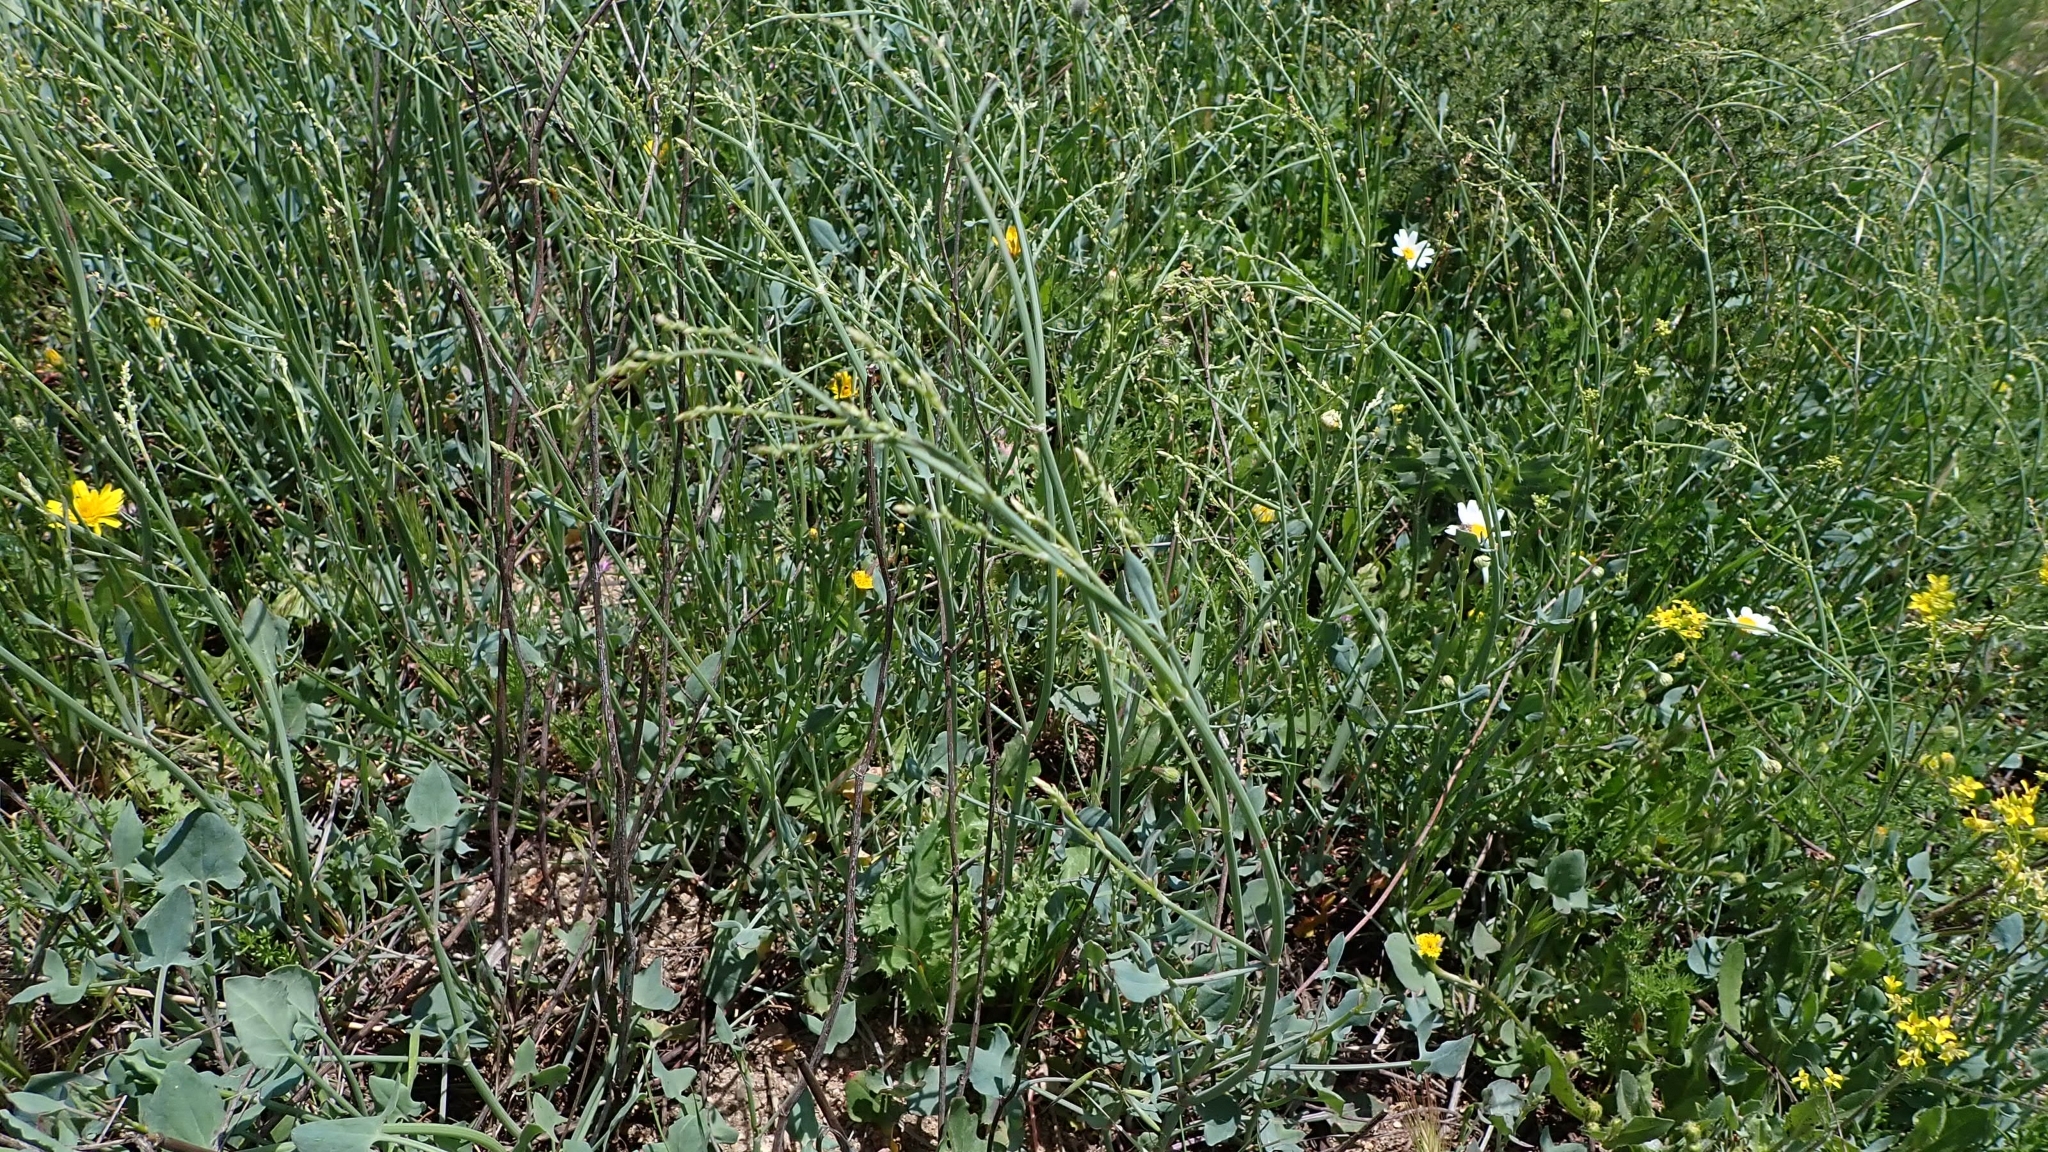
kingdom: Plantae
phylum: Tracheophyta
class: Magnoliopsida
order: Caryophyllales
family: Polygonaceae
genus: Rumex
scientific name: Rumex induratus
